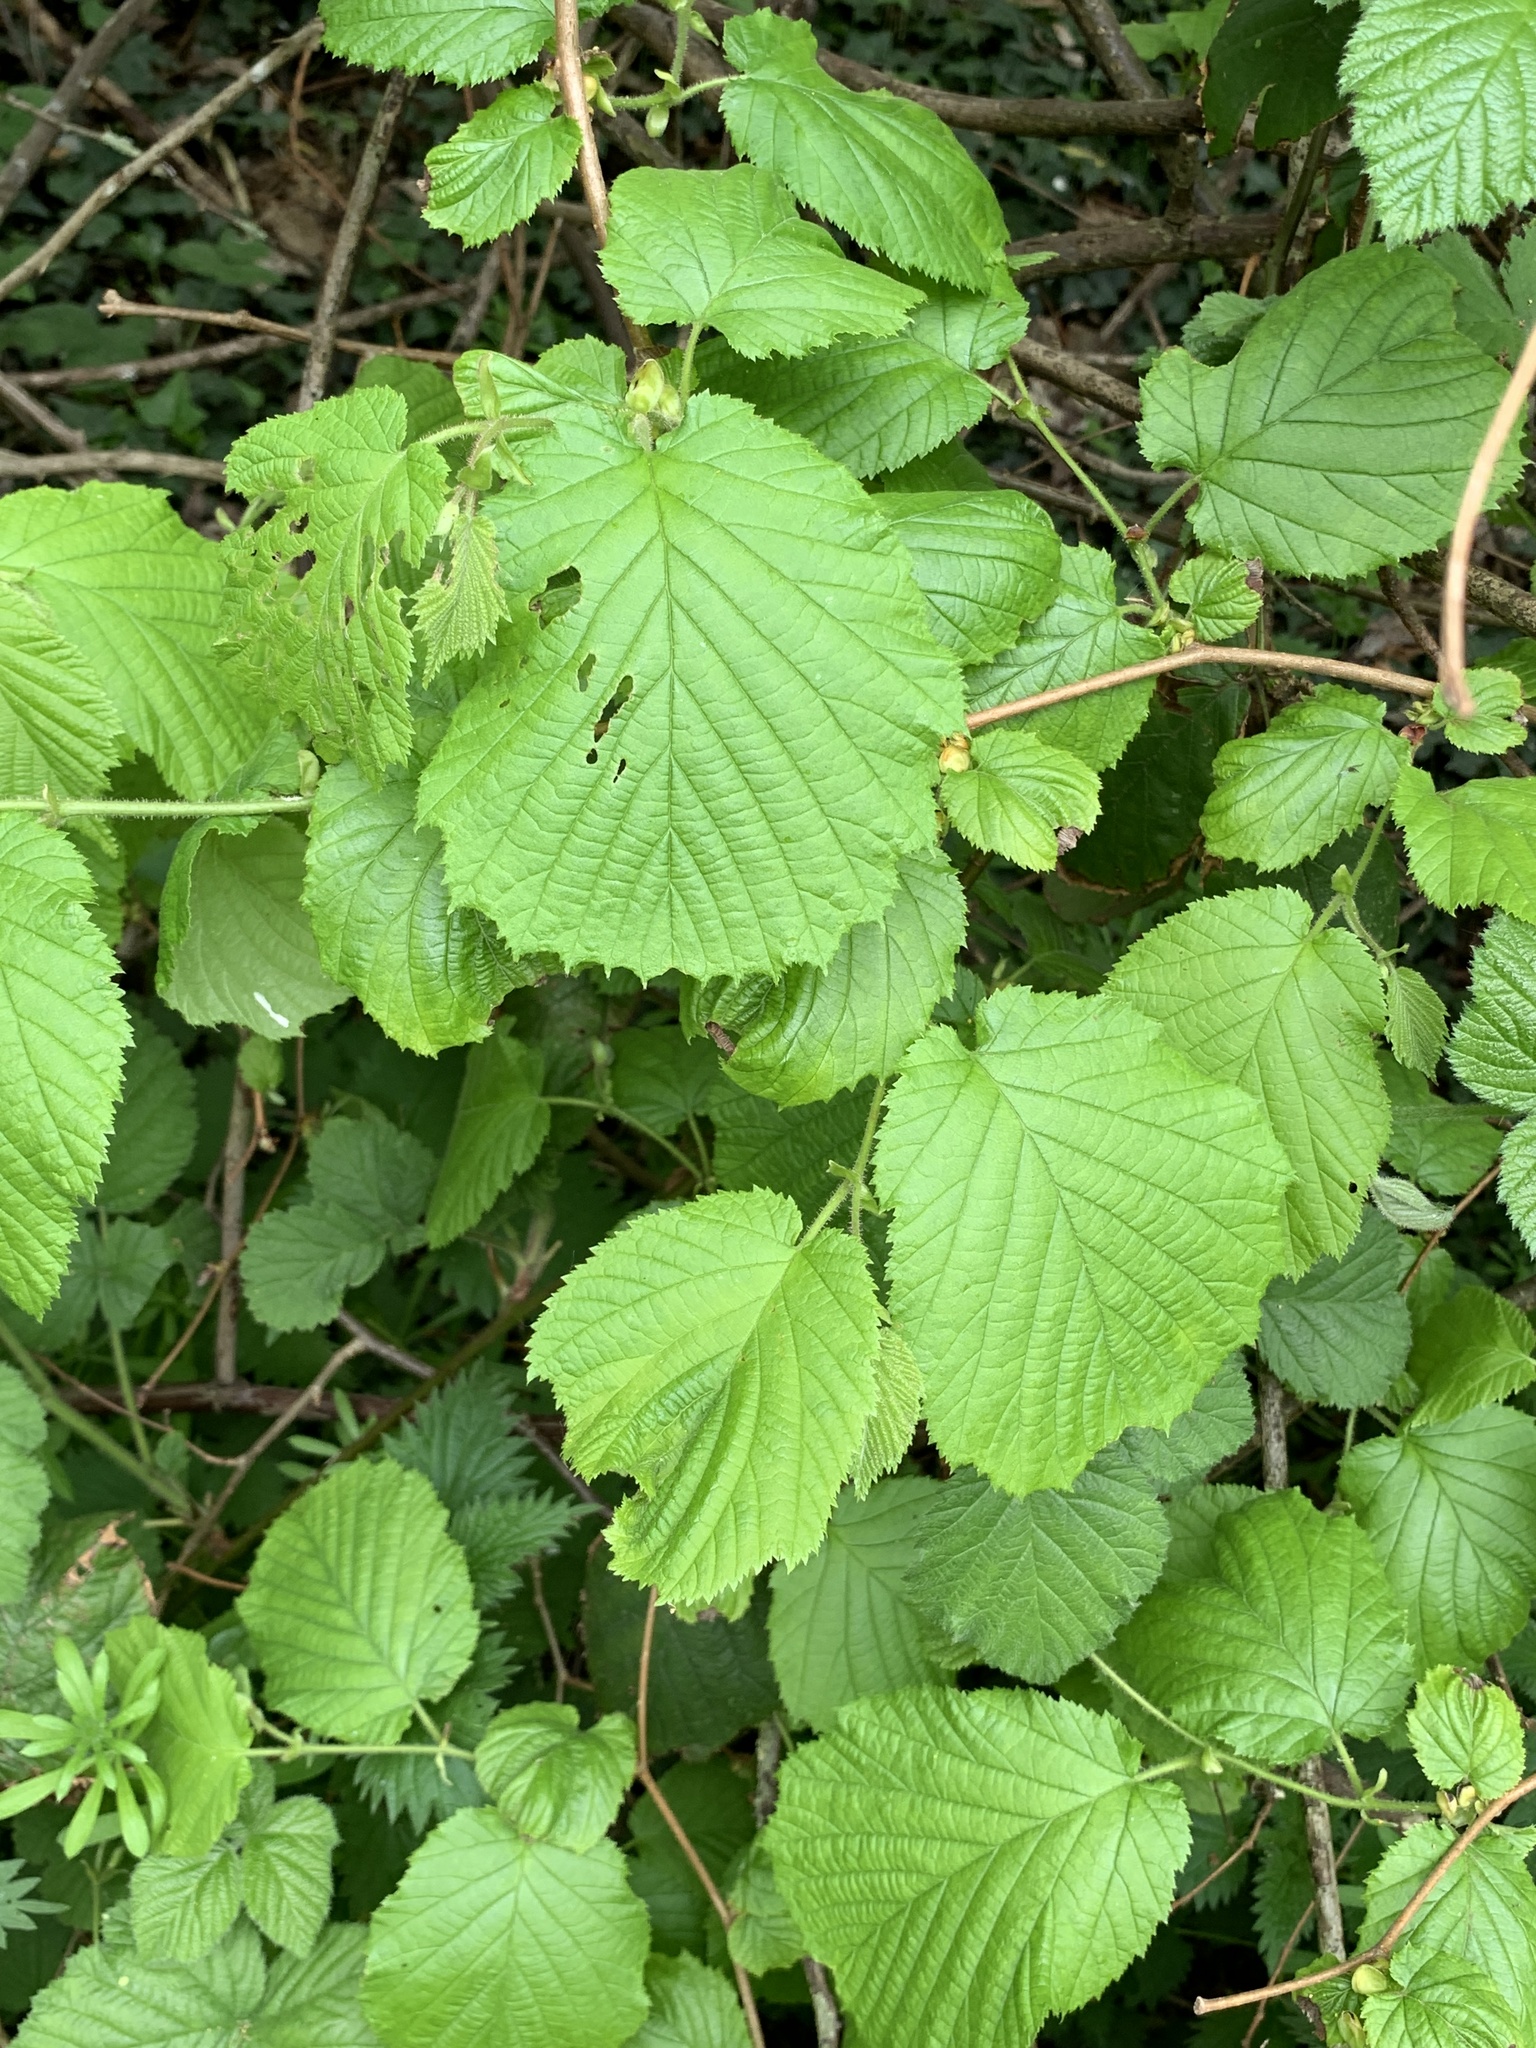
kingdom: Plantae
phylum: Tracheophyta
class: Magnoliopsida
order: Fagales
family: Betulaceae
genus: Corylus
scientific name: Corylus avellana
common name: European hazel
